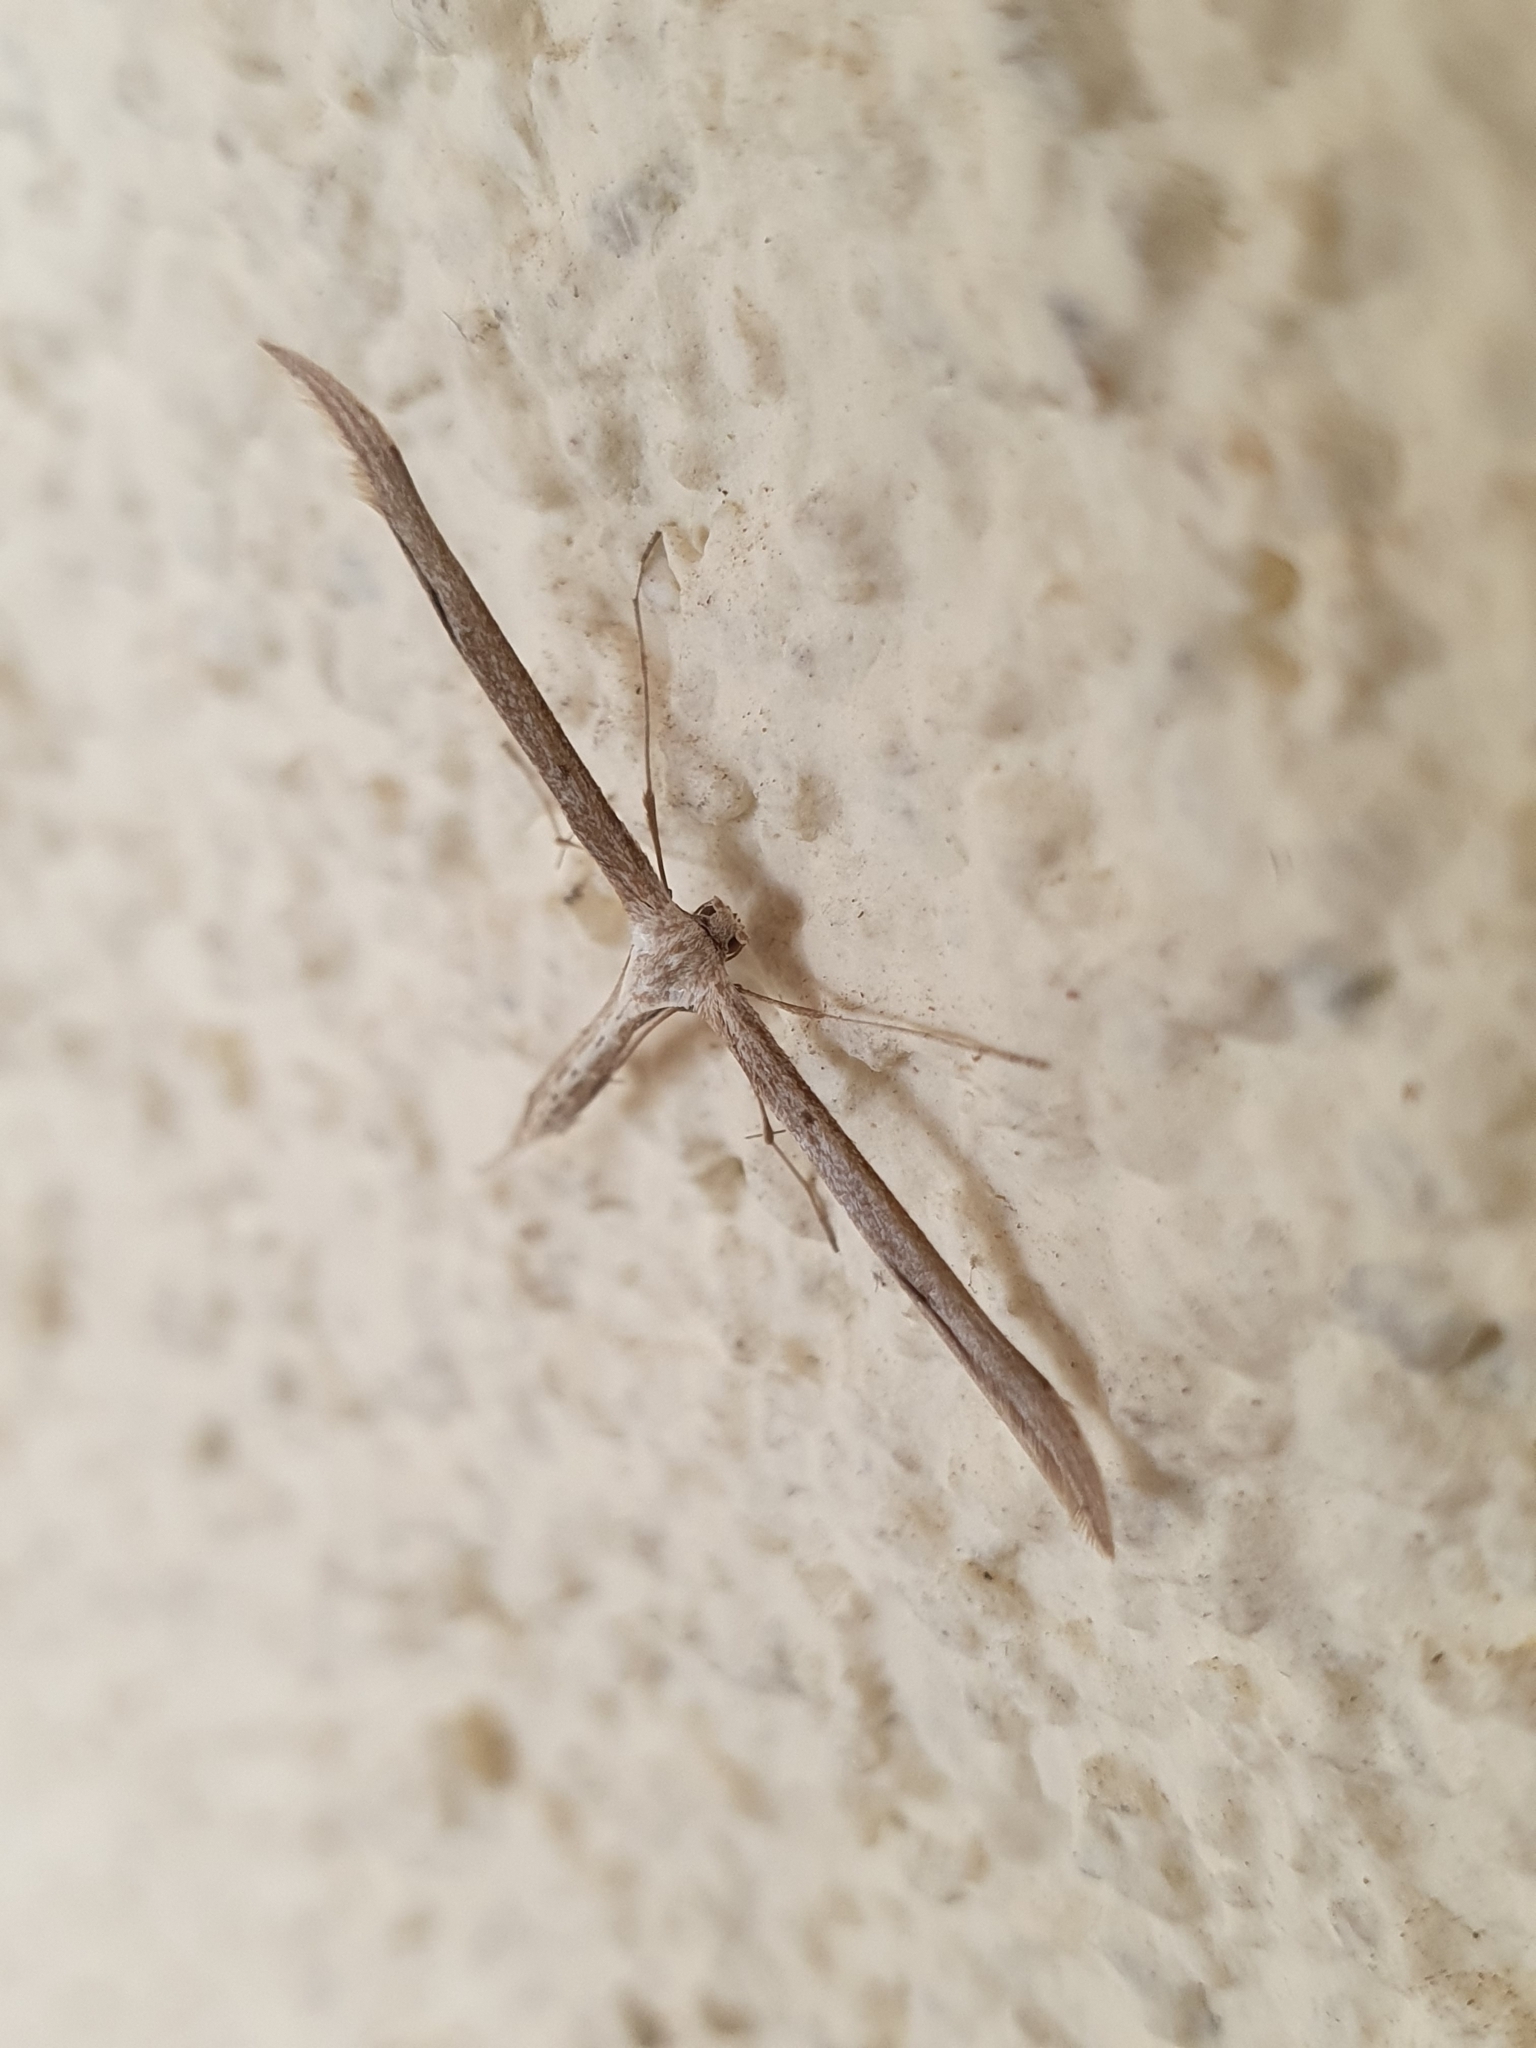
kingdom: Animalia
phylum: Arthropoda
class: Insecta
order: Lepidoptera
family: Pterophoridae
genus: Emmelina
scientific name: Emmelina monodactyla
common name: Common plume
